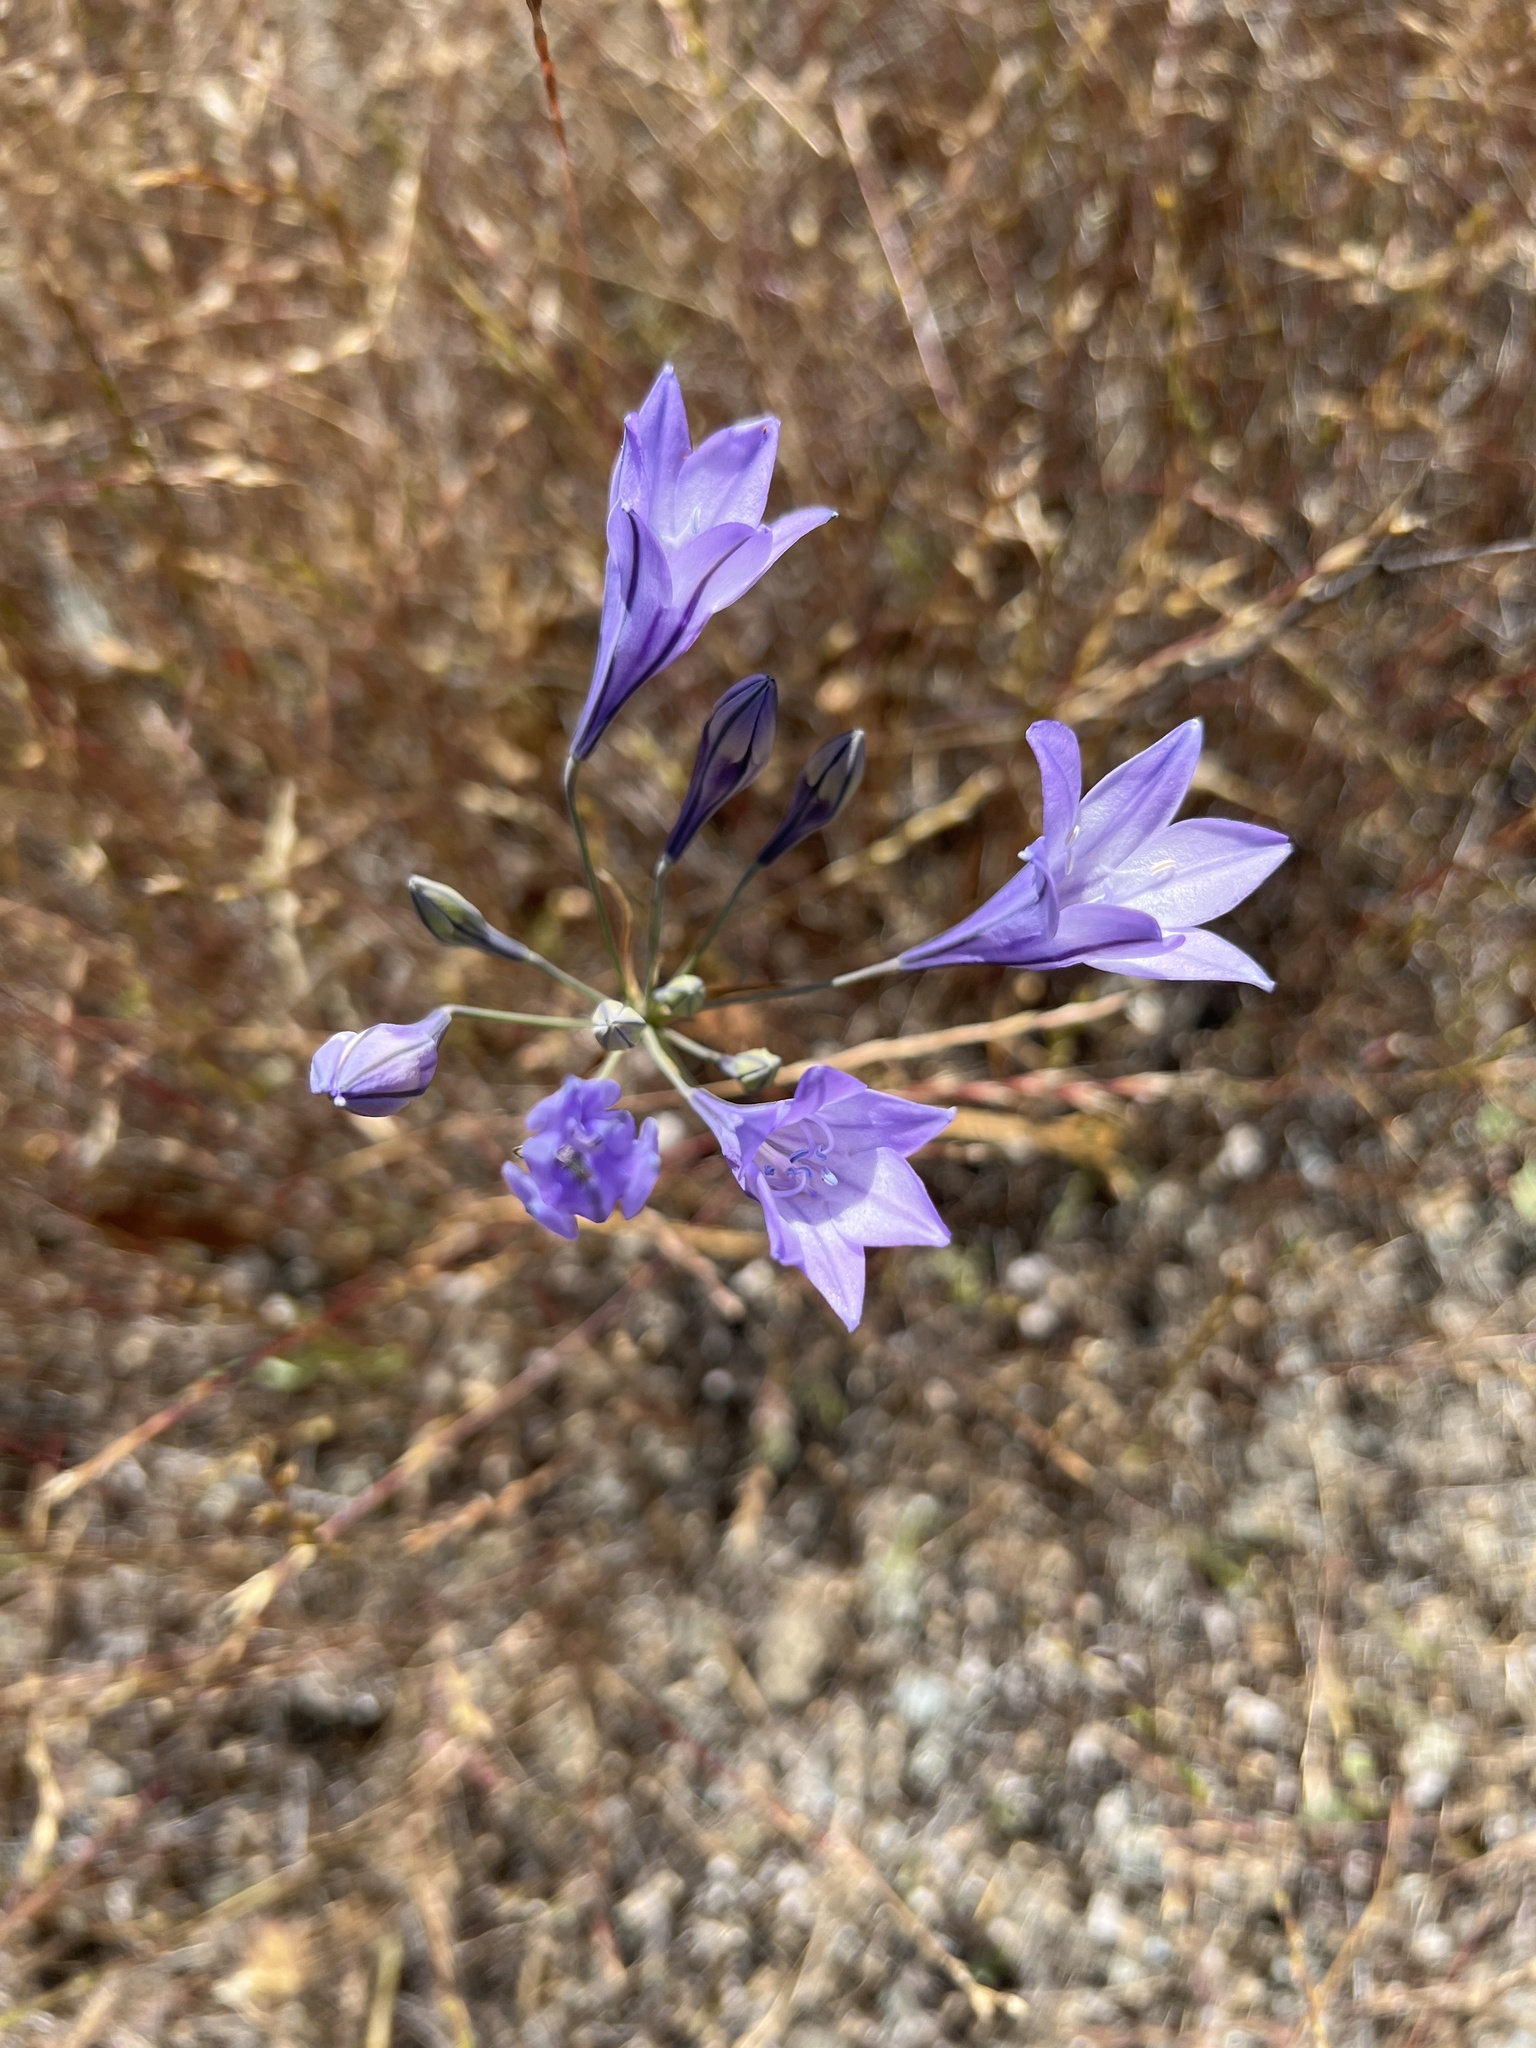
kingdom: Plantae
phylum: Tracheophyta
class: Liliopsida
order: Asparagales
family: Asparagaceae
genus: Triteleia
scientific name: Triteleia laxa
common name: Triplet-lily
